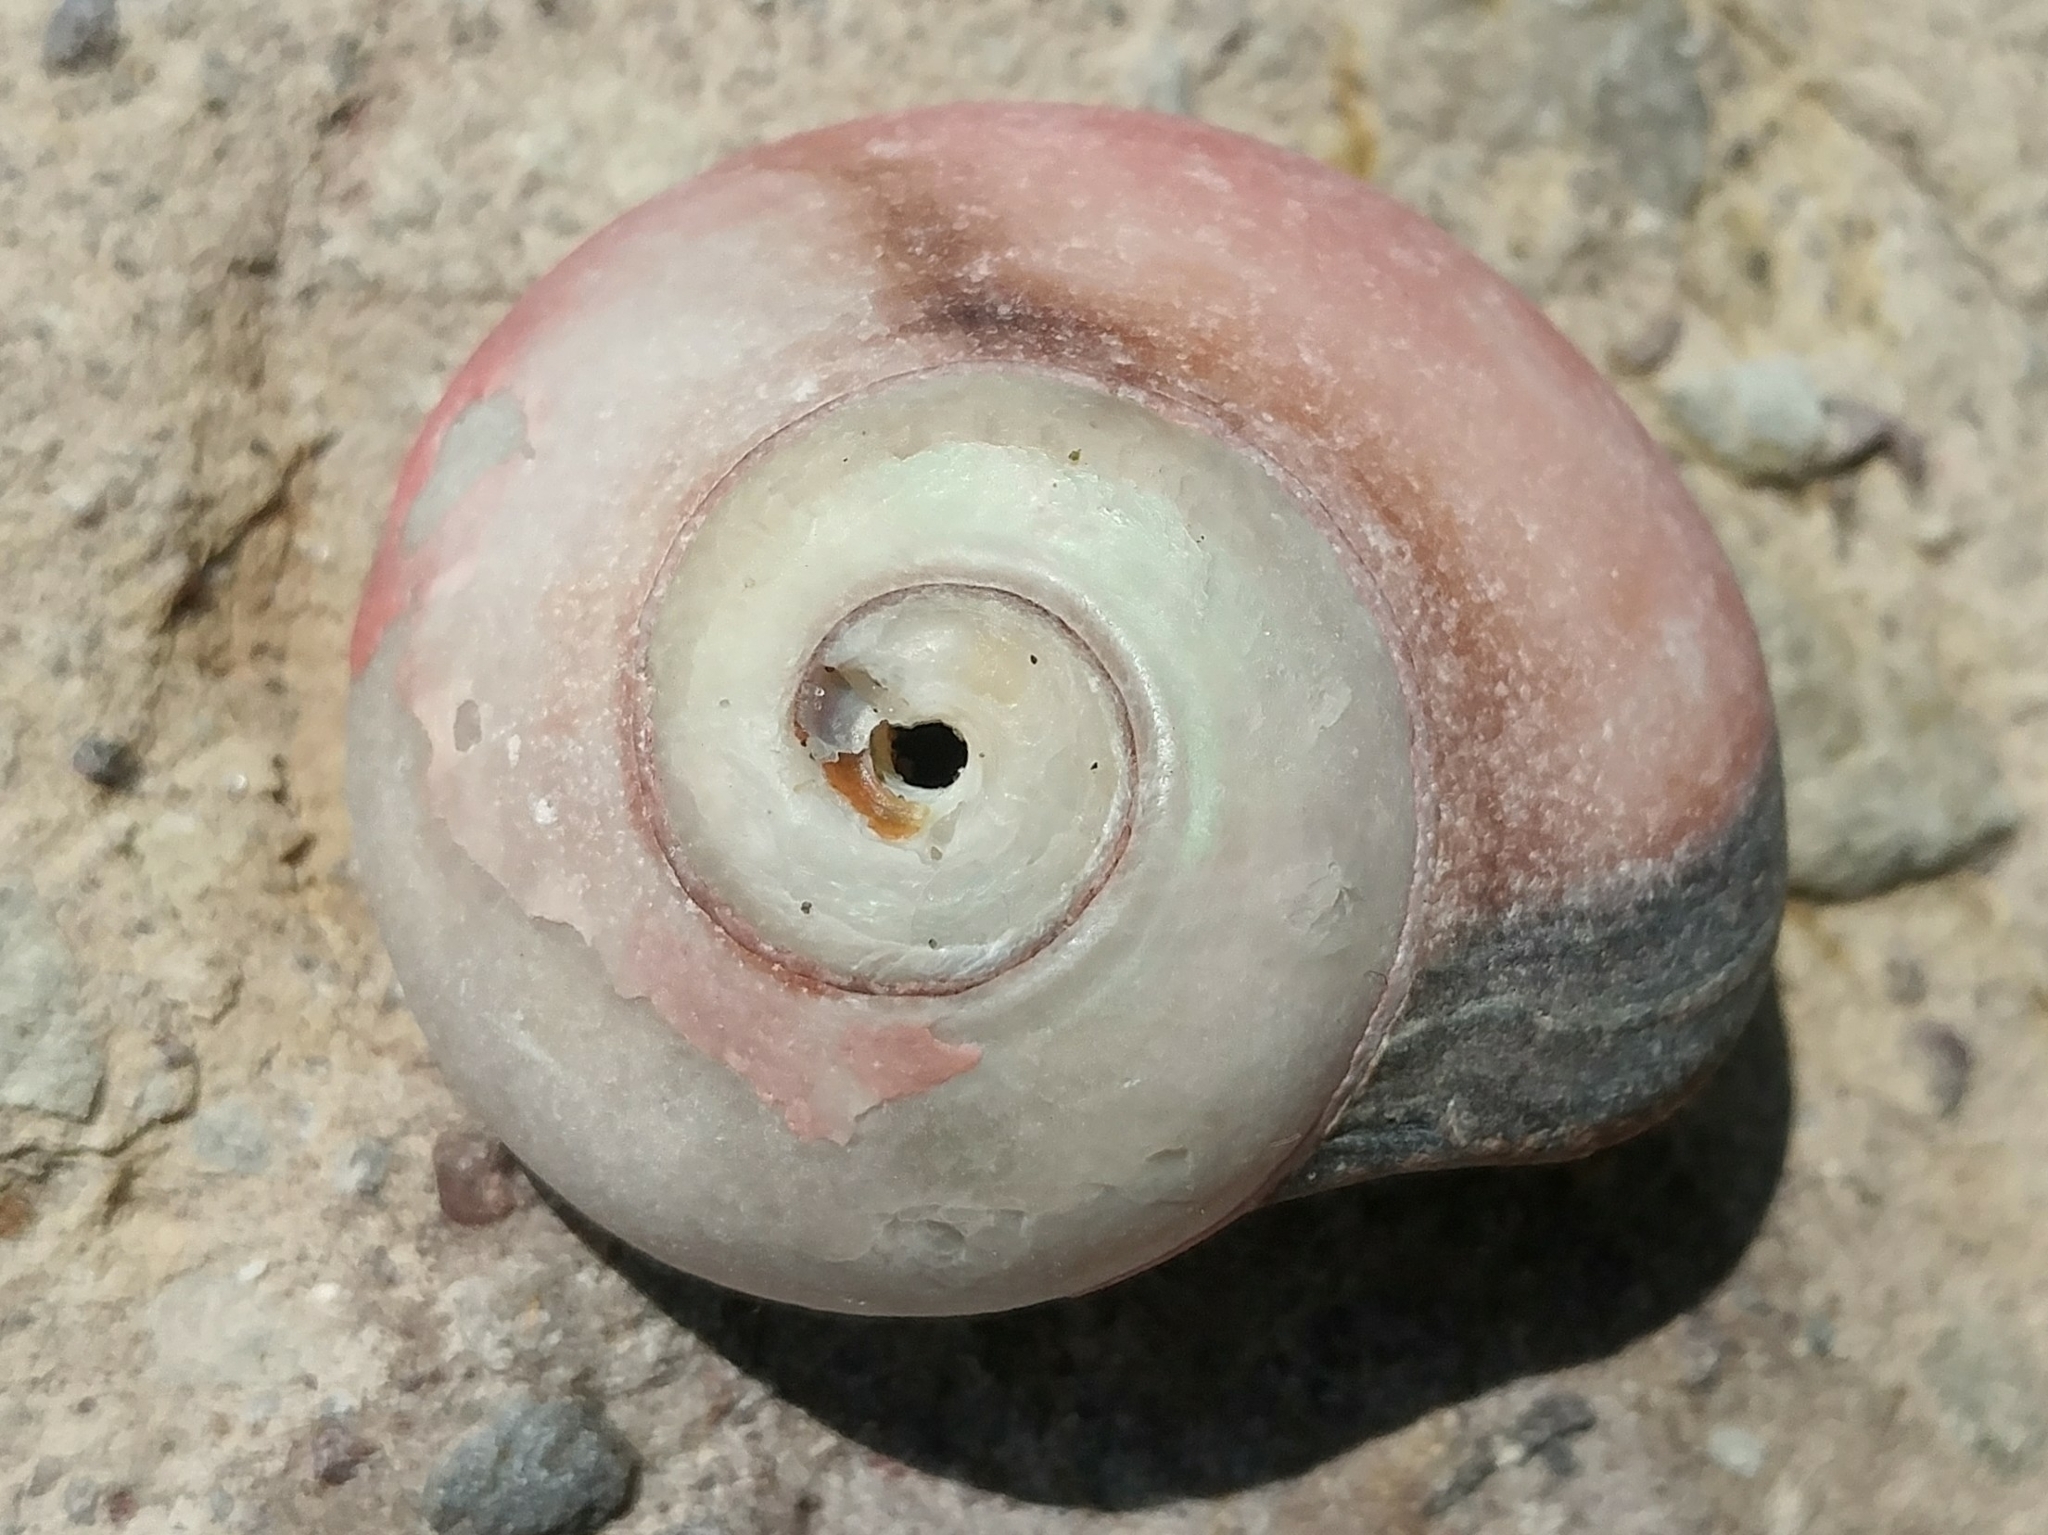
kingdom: Animalia
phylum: Mollusca
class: Gastropoda
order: Trochida
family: Tegulidae
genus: Norrisia
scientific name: Norrisia norrisii
